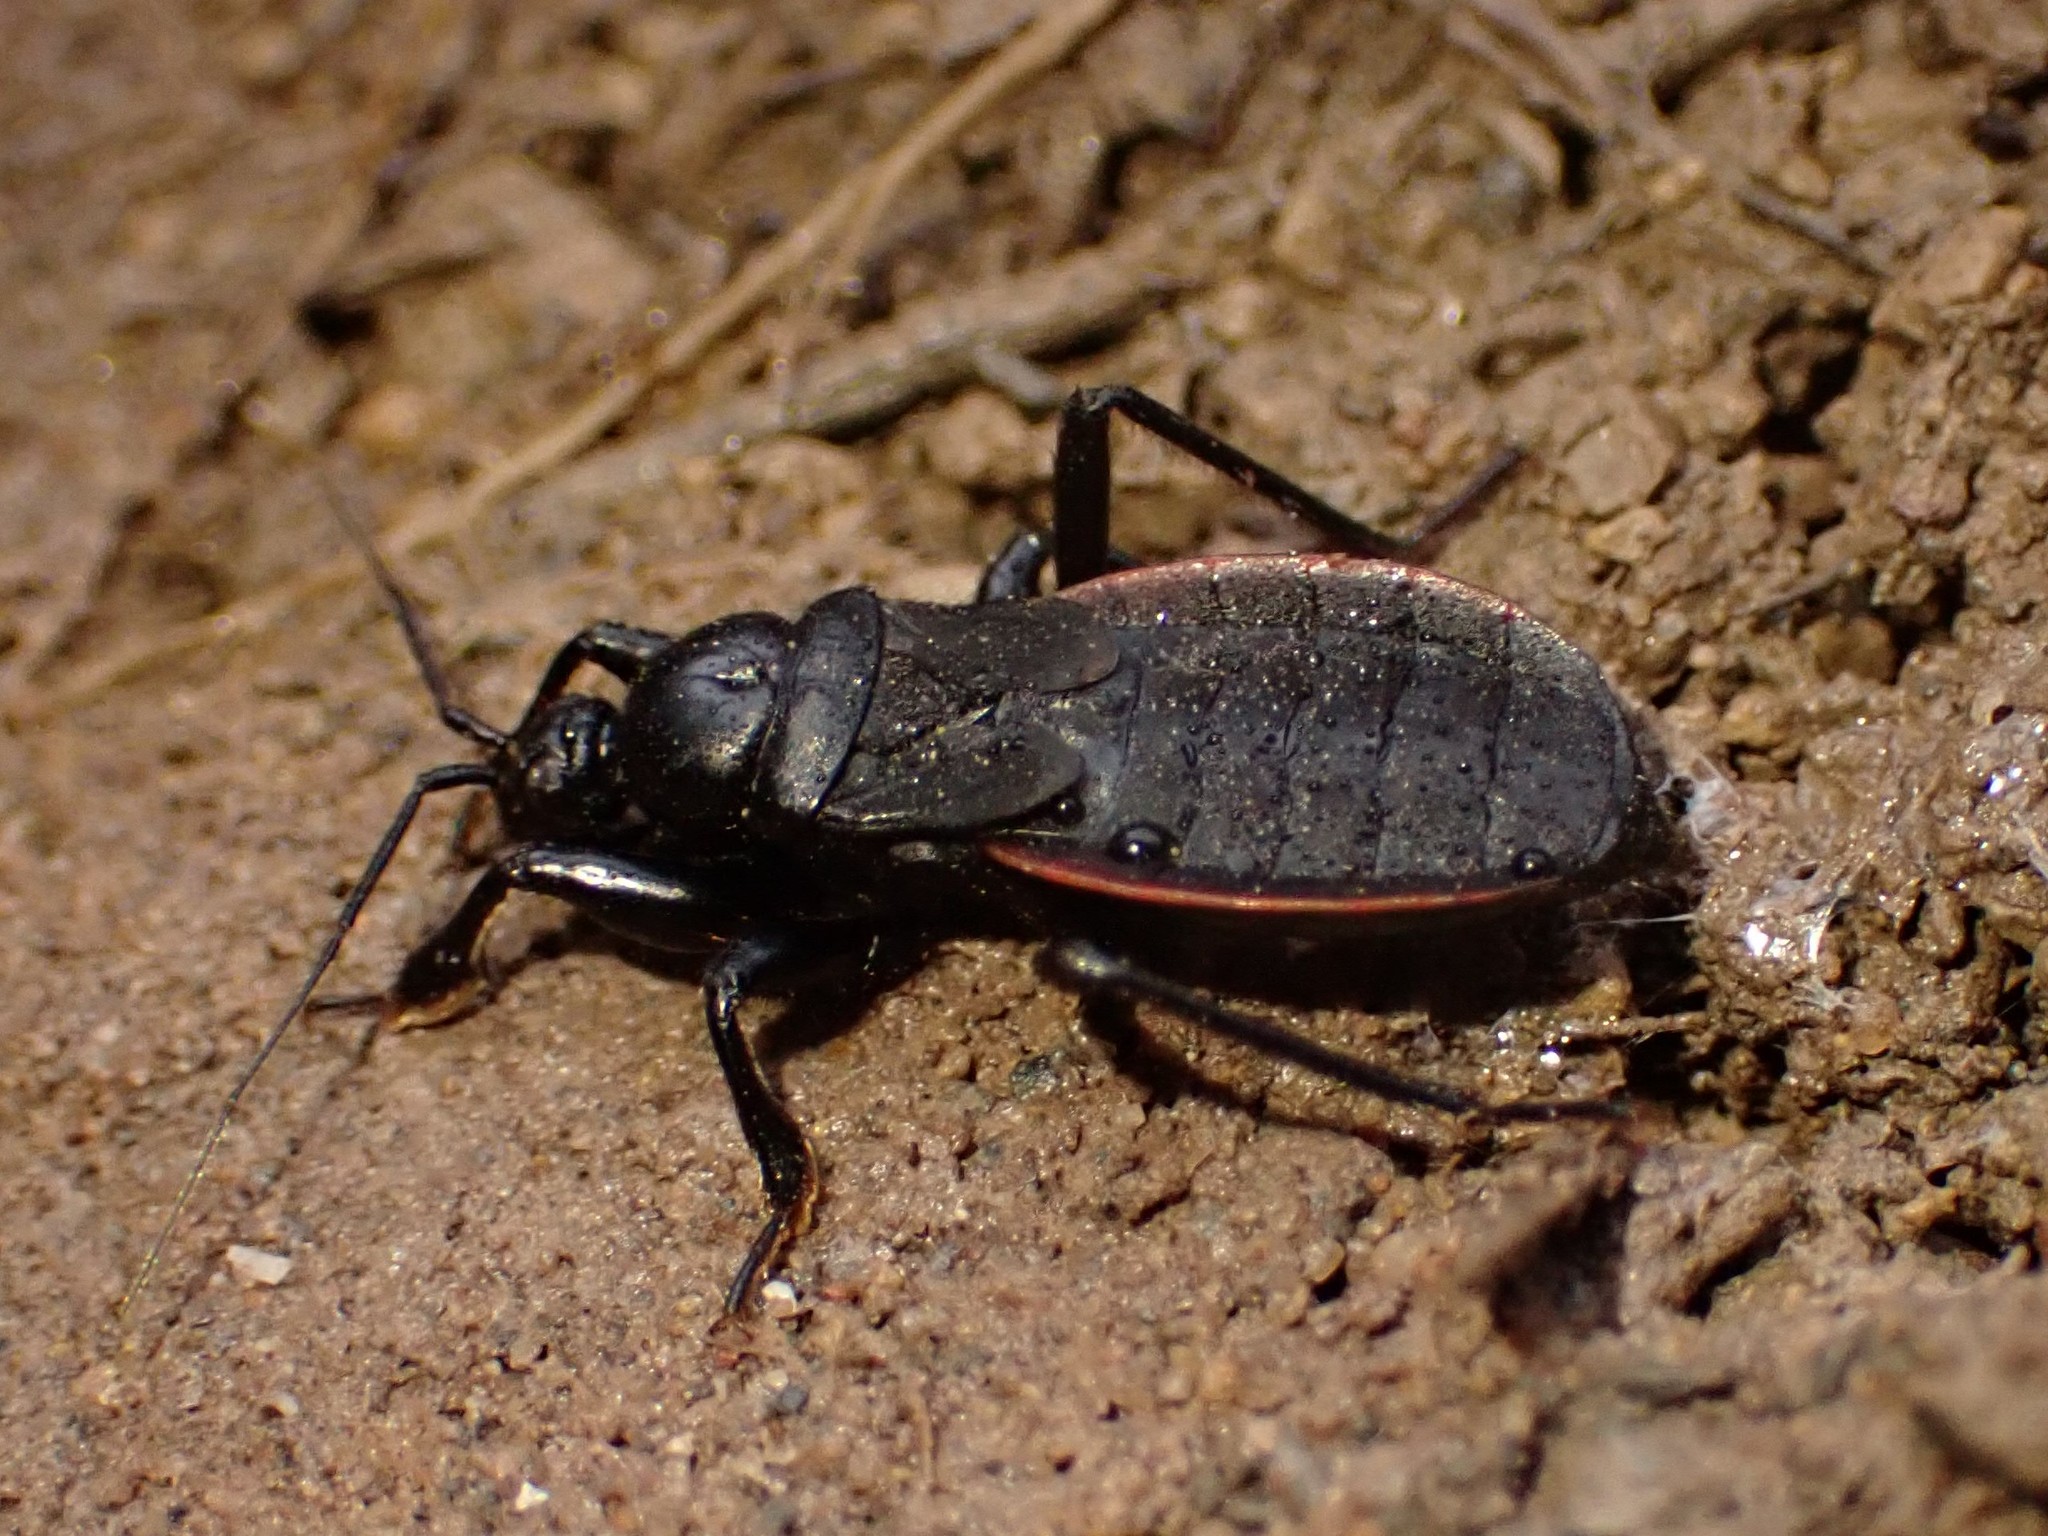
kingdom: Animalia
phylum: Arthropoda
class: Insecta
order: Hemiptera
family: Reduviidae
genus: Melanolestes
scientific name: Melanolestes picipes
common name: Assassin bug
